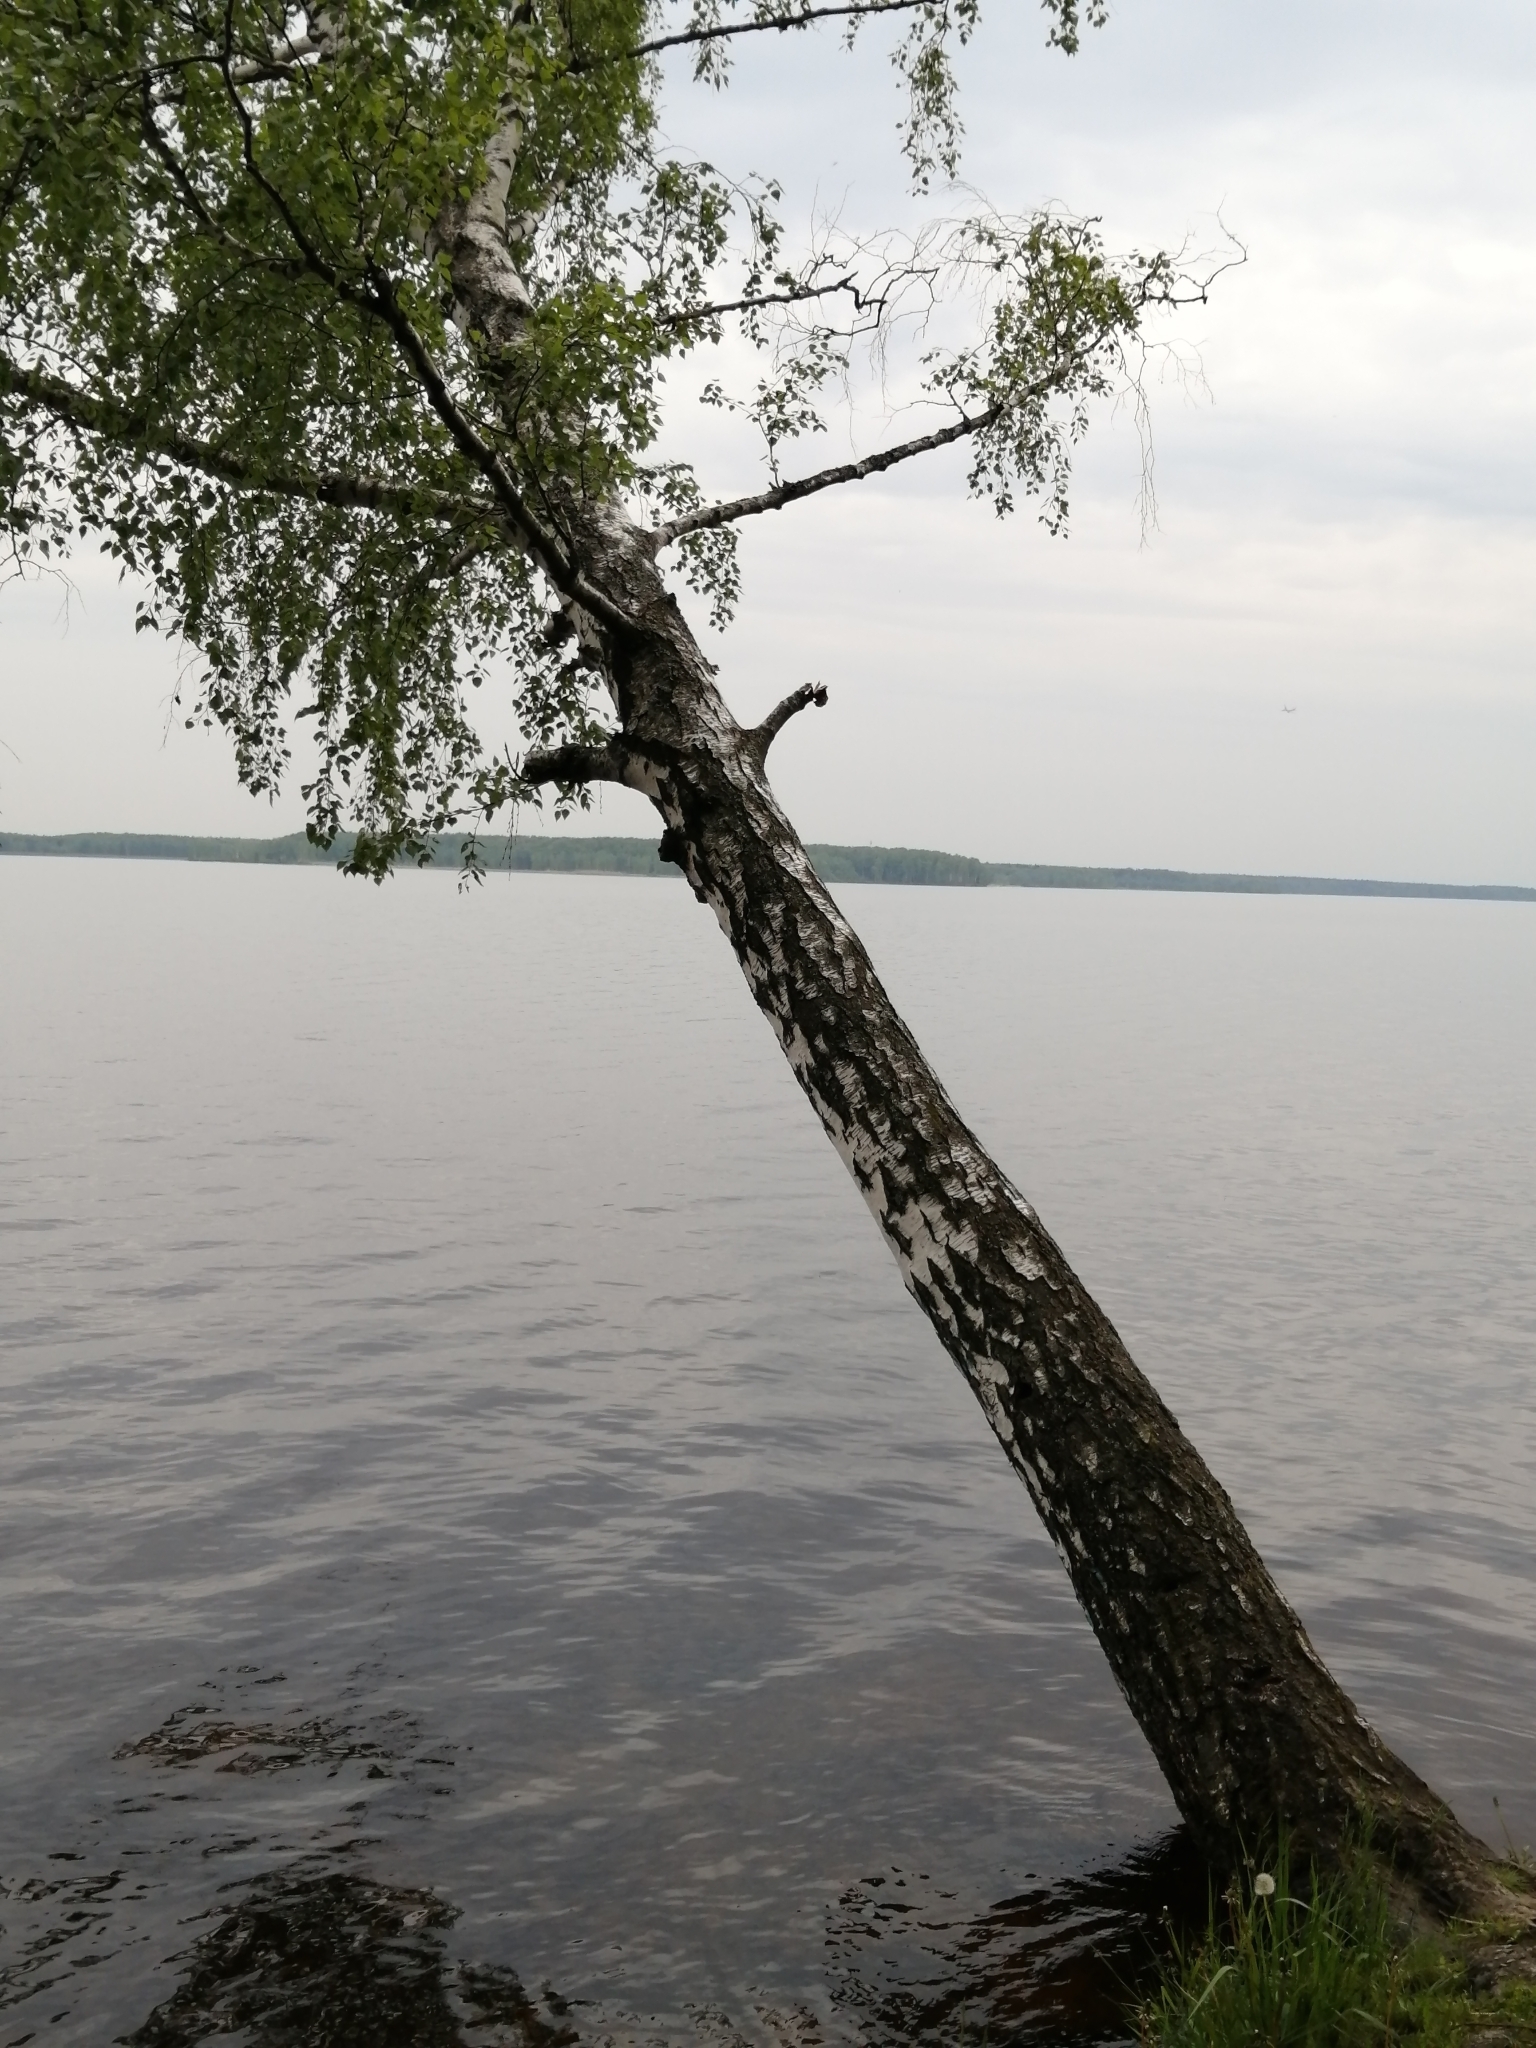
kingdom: Plantae
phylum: Tracheophyta
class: Magnoliopsida
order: Fagales
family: Betulaceae
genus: Betula
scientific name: Betula pendula
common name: Silver birch
